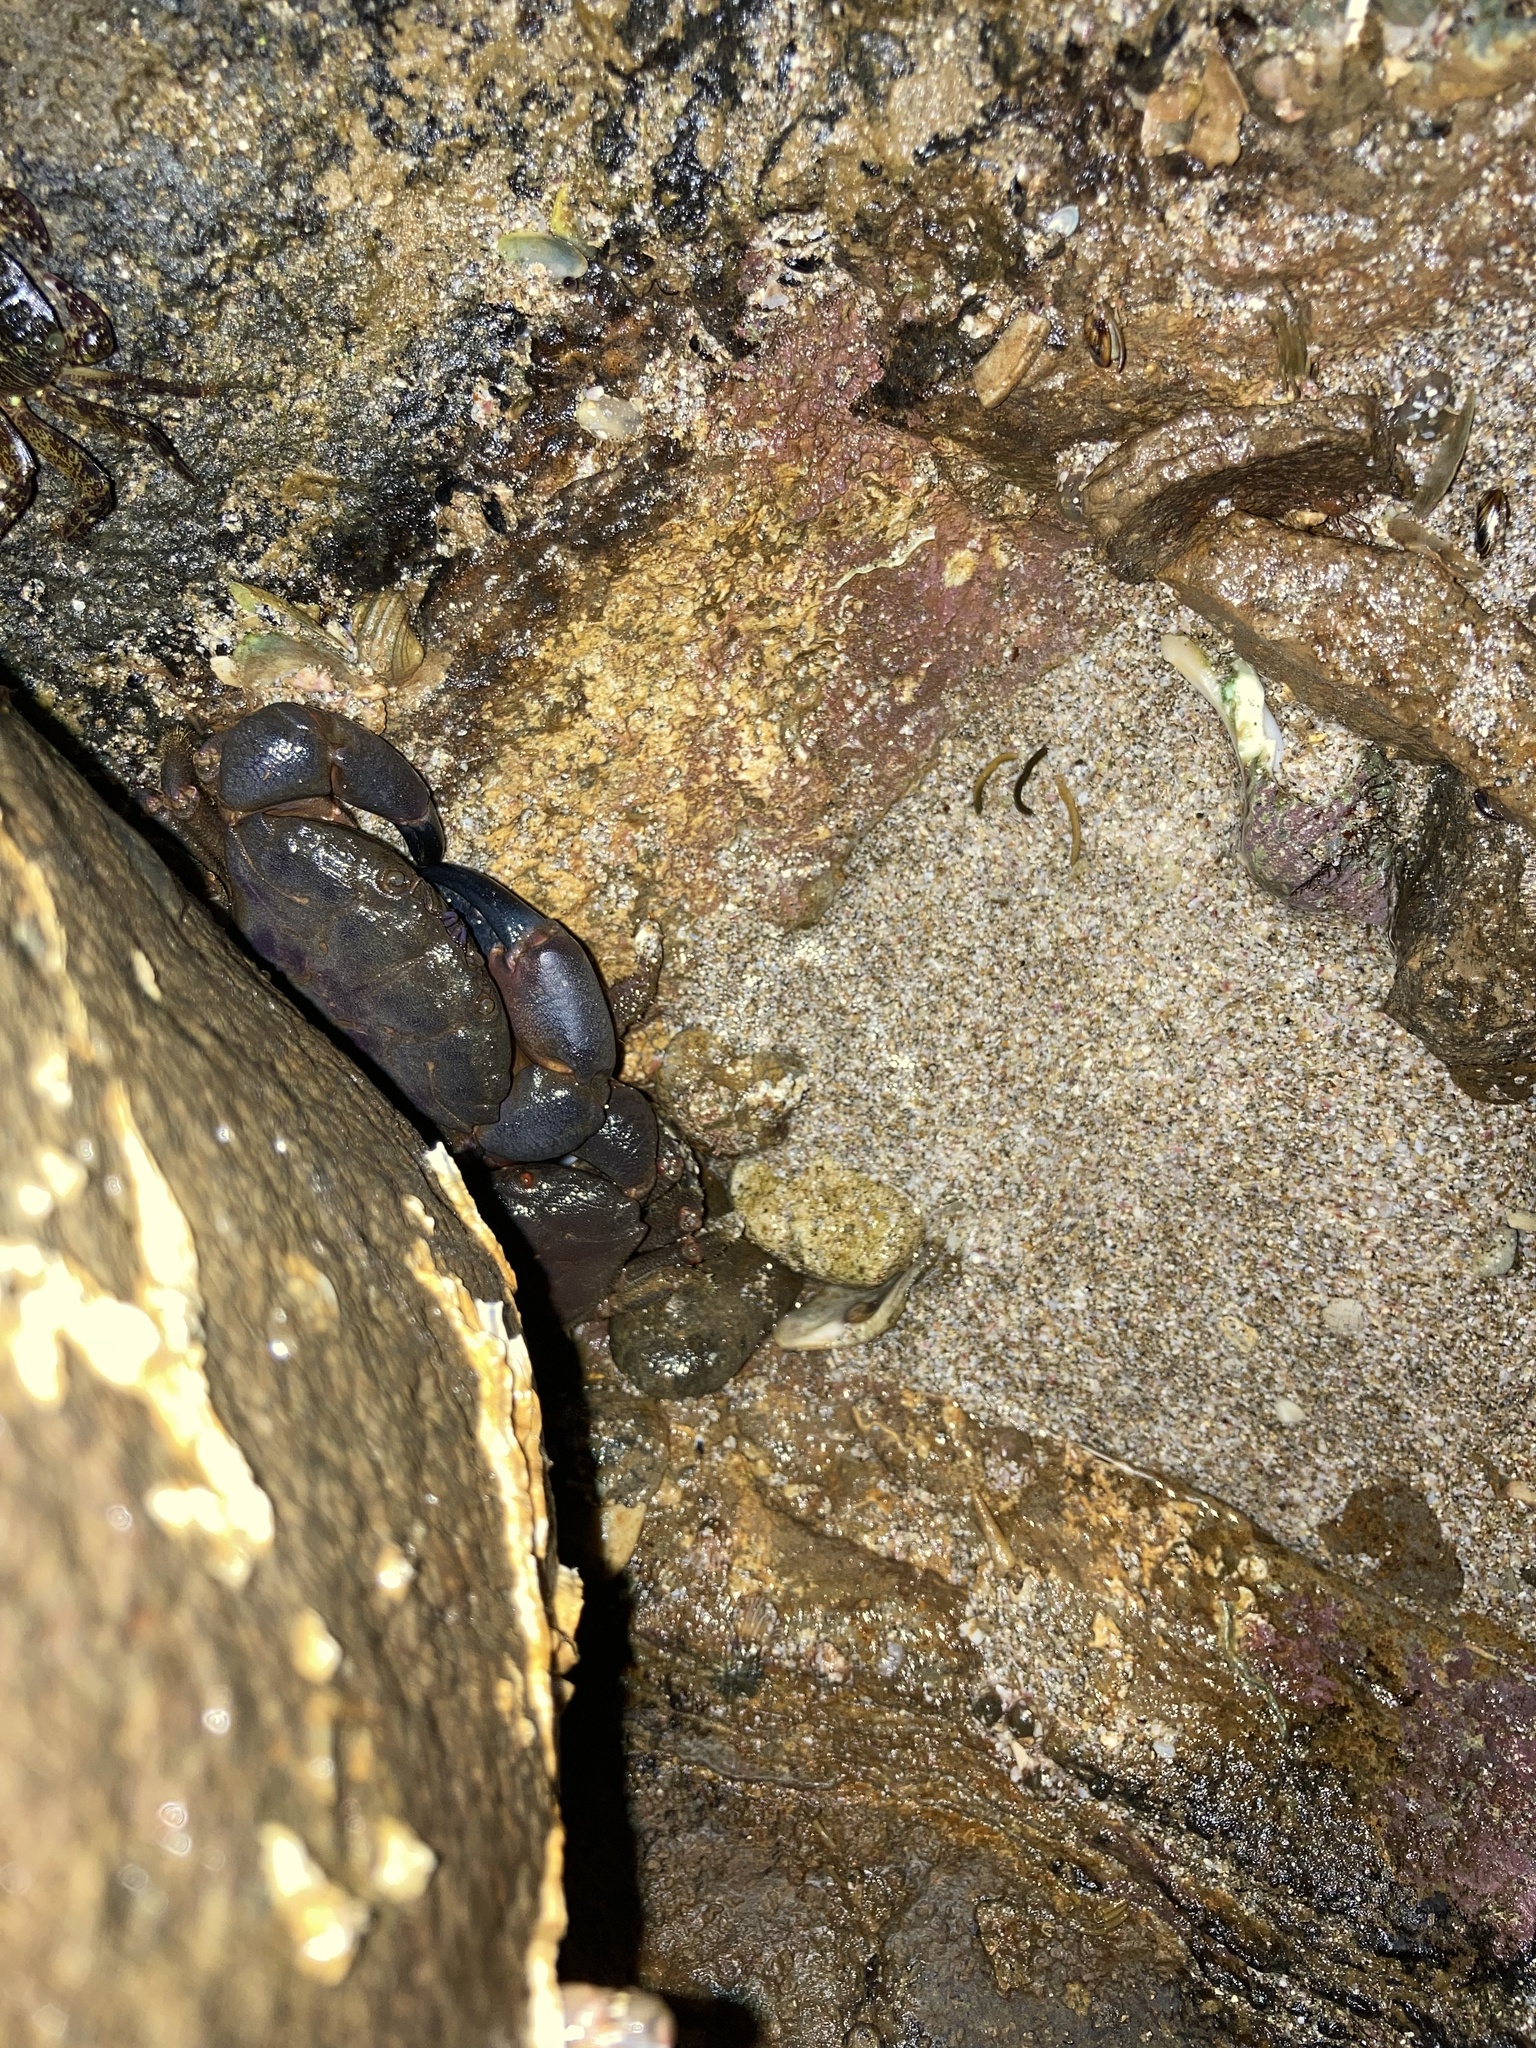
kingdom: Animalia
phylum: Arthropoda
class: Malacostraca
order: Decapoda
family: Oziidae
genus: Ozius
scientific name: Ozius deplanatus
